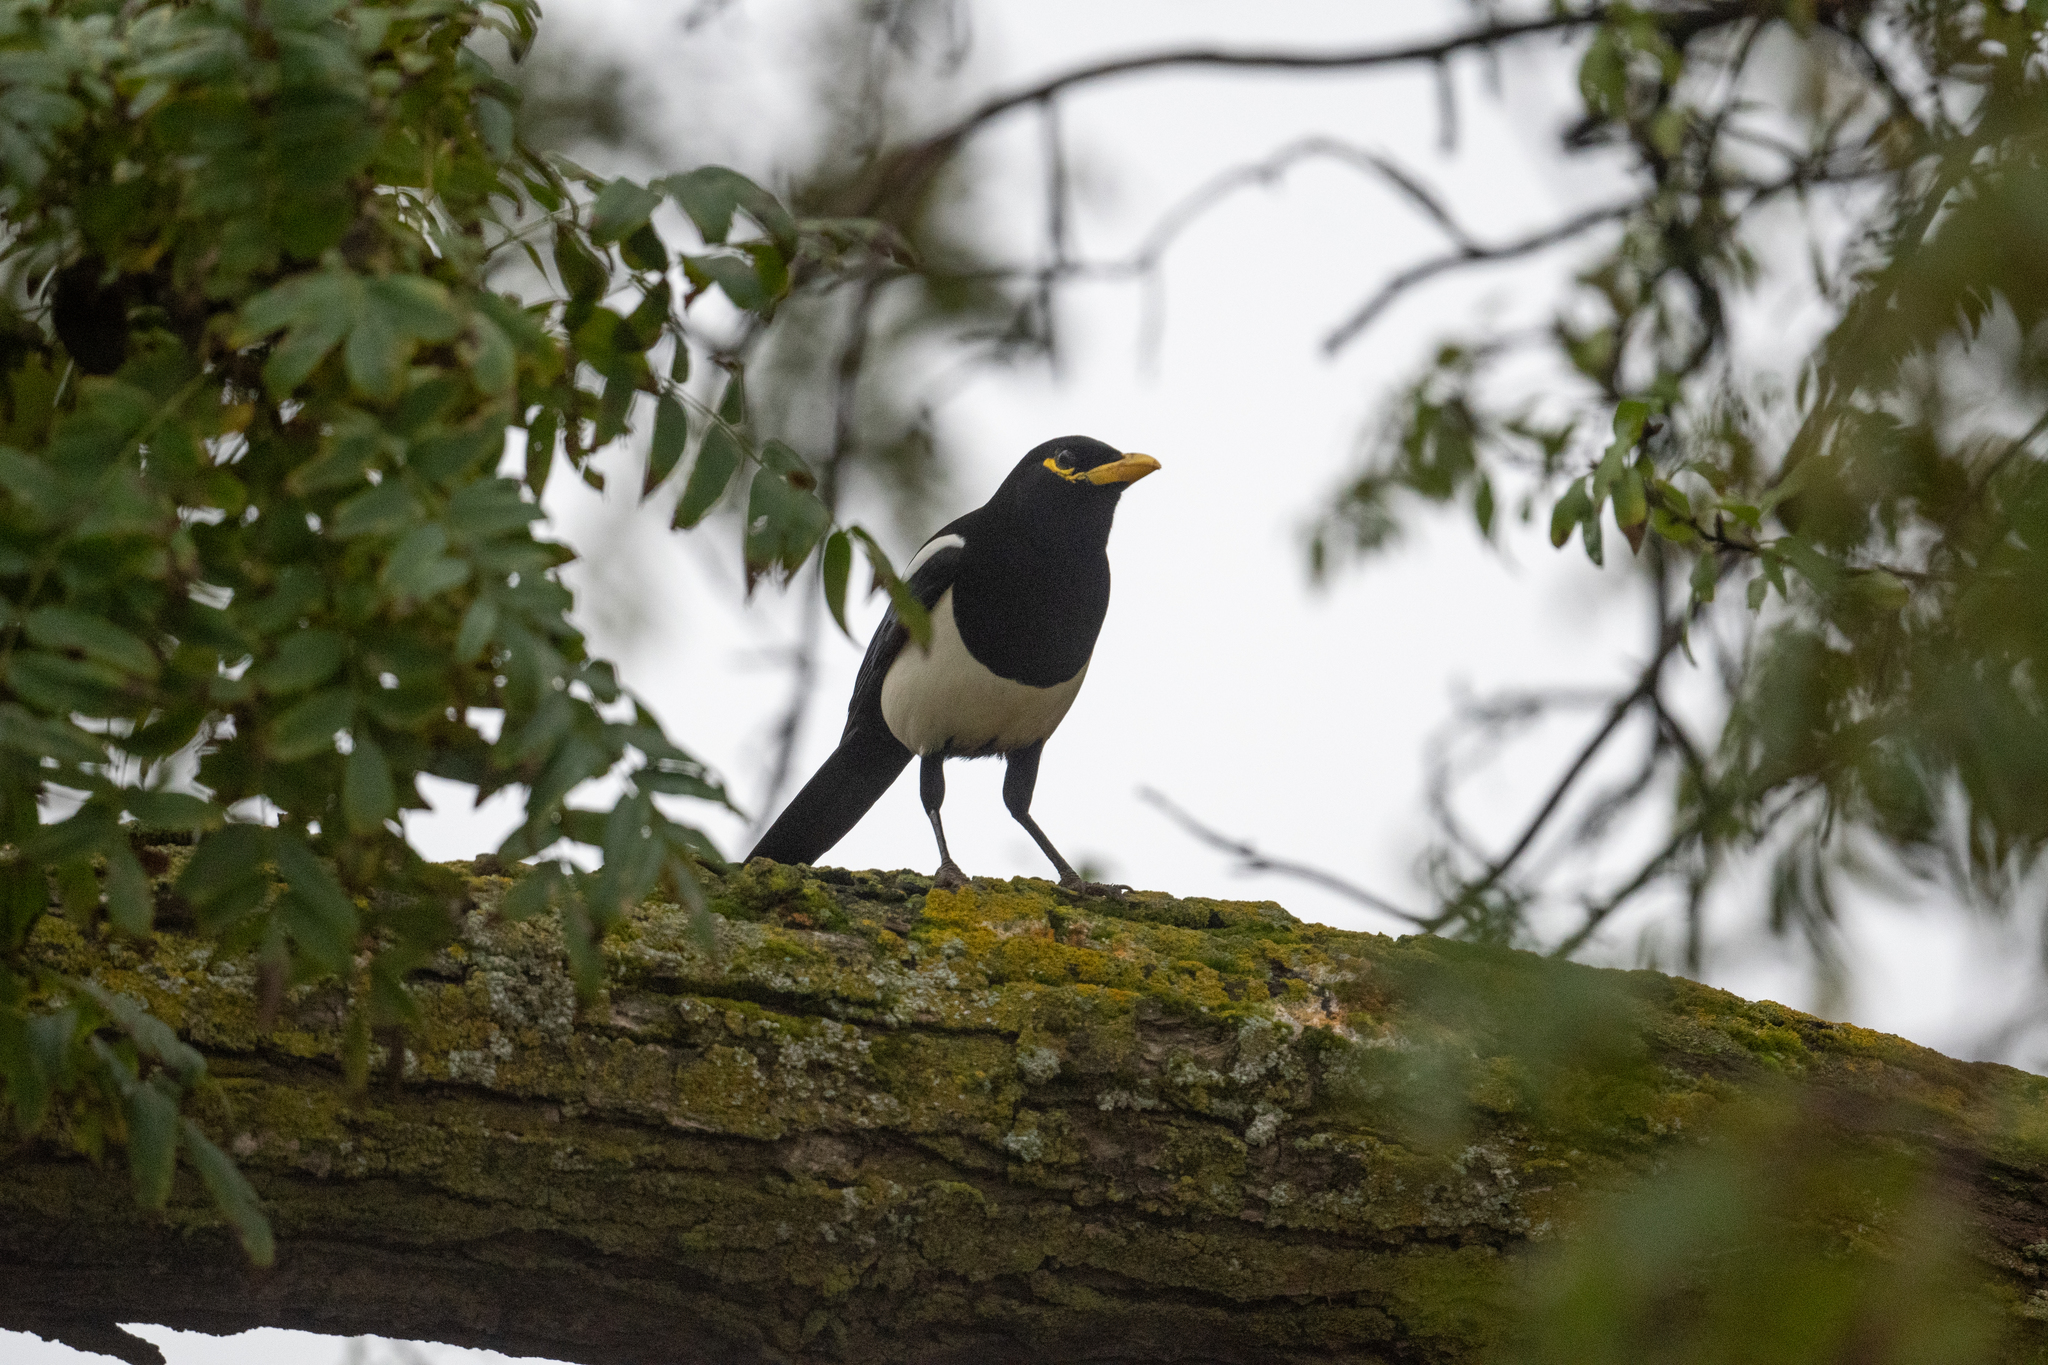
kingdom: Animalia
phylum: Chordata
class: Aves
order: Passeriformes
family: Corvidae
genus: Pica
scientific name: Pica nuttalli
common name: Yellow-billed magpie
